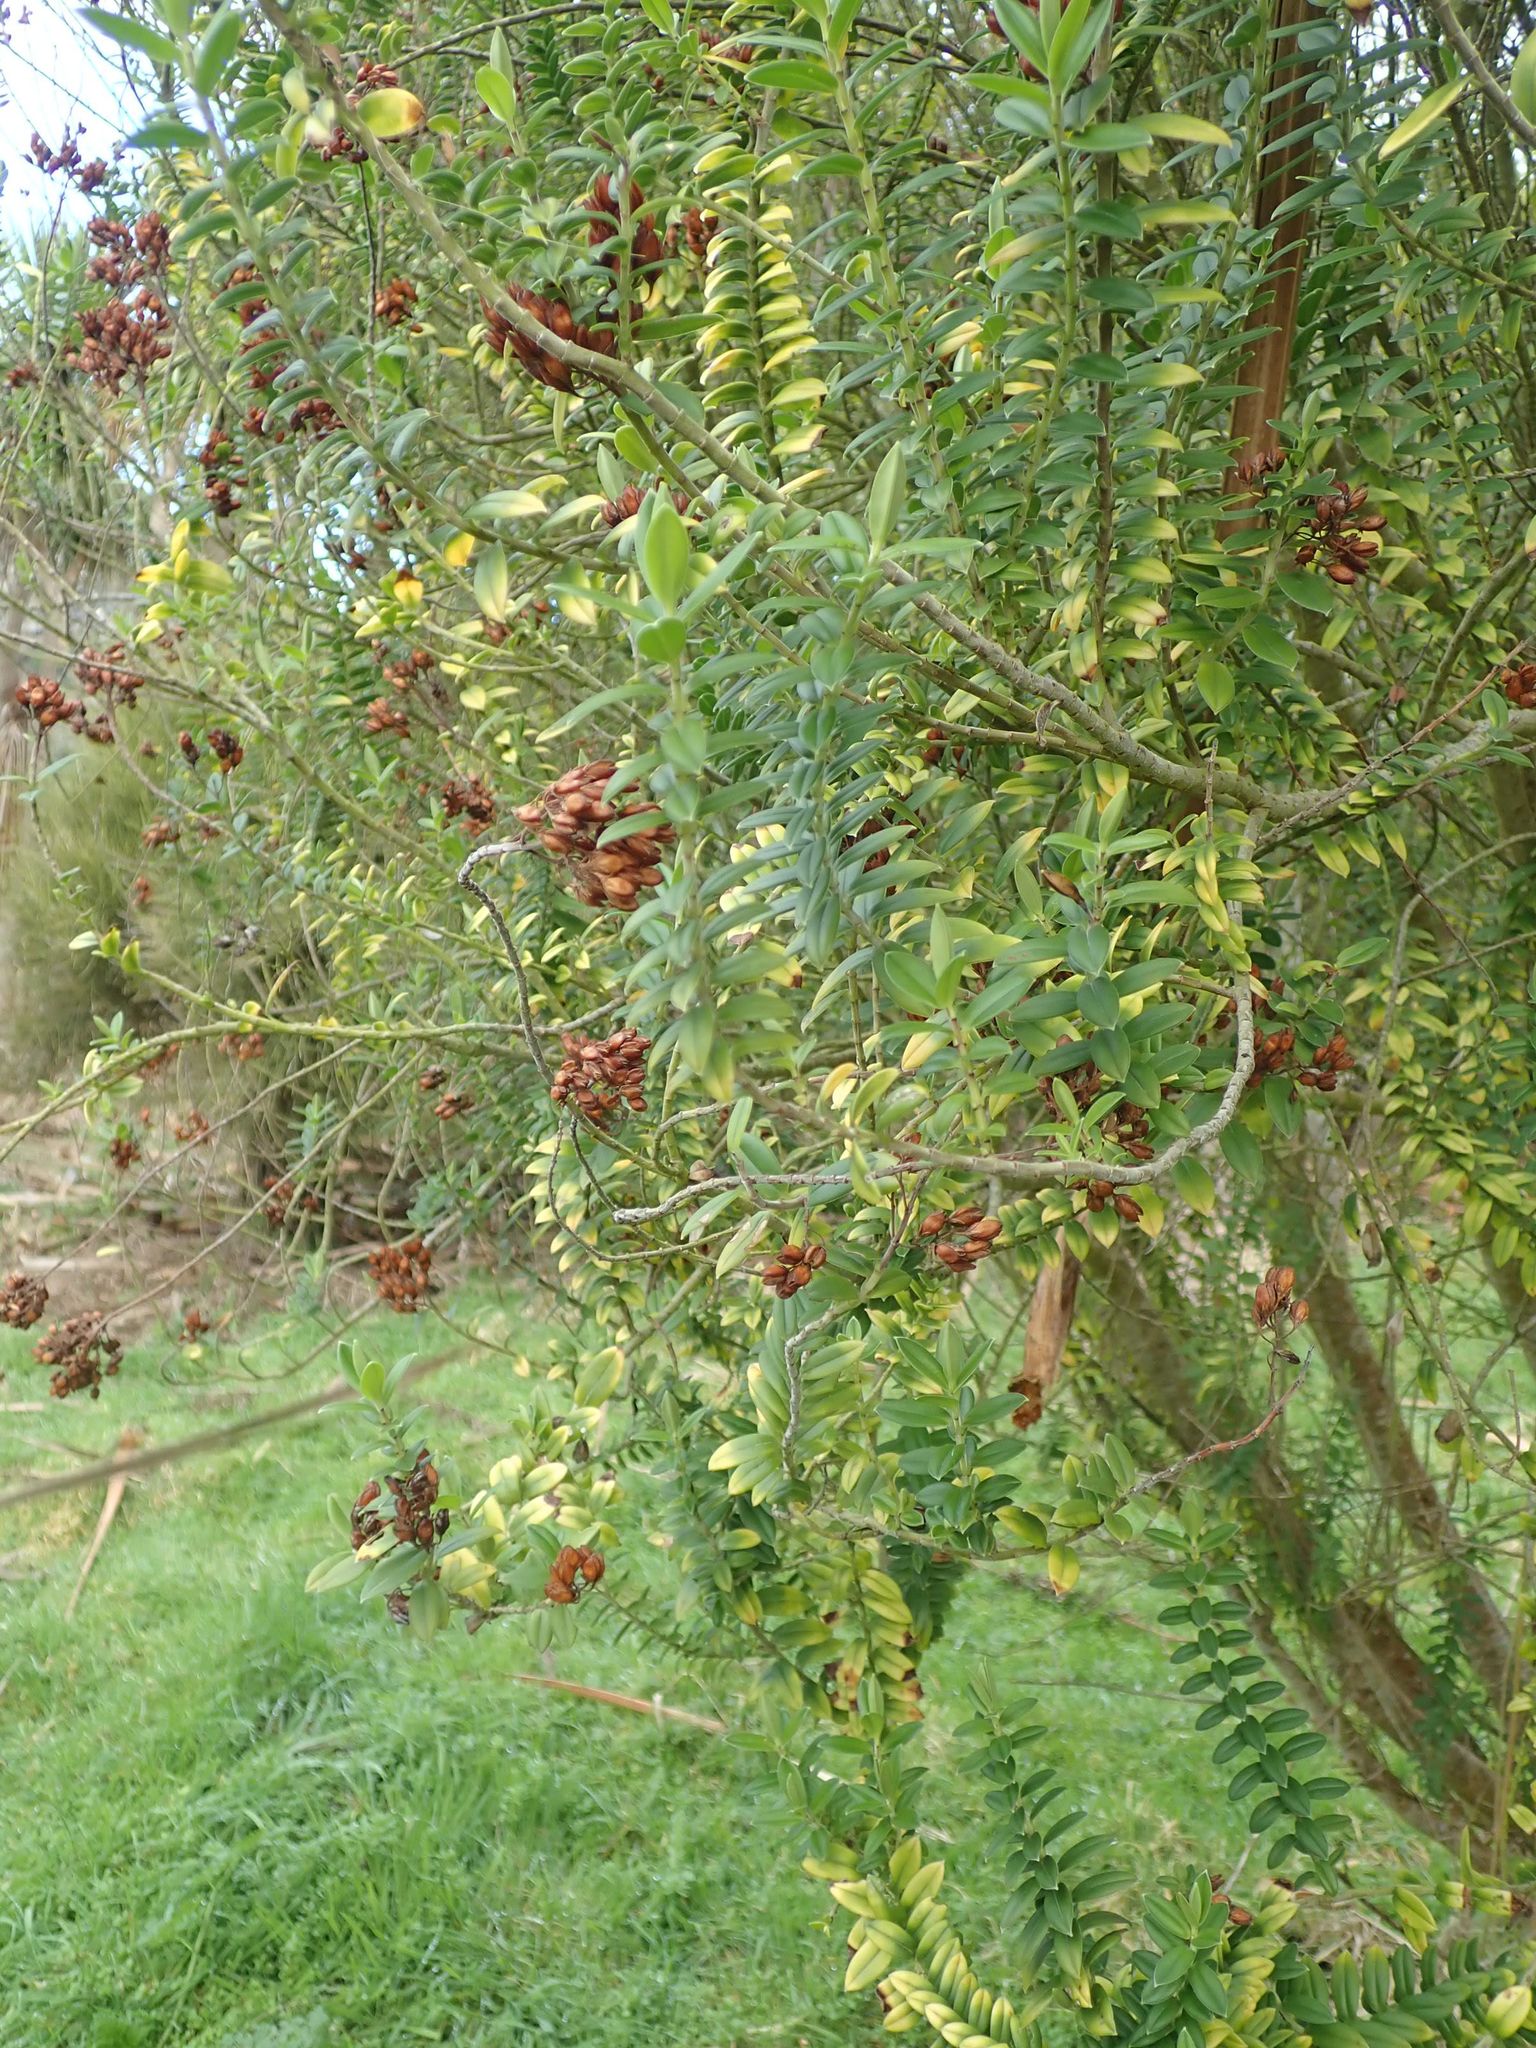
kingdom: Plantae
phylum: Tracheophyta
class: Magnoliopsida
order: Lamiales
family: Plantaginaceae
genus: Veronica
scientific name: Veronica elliptica
